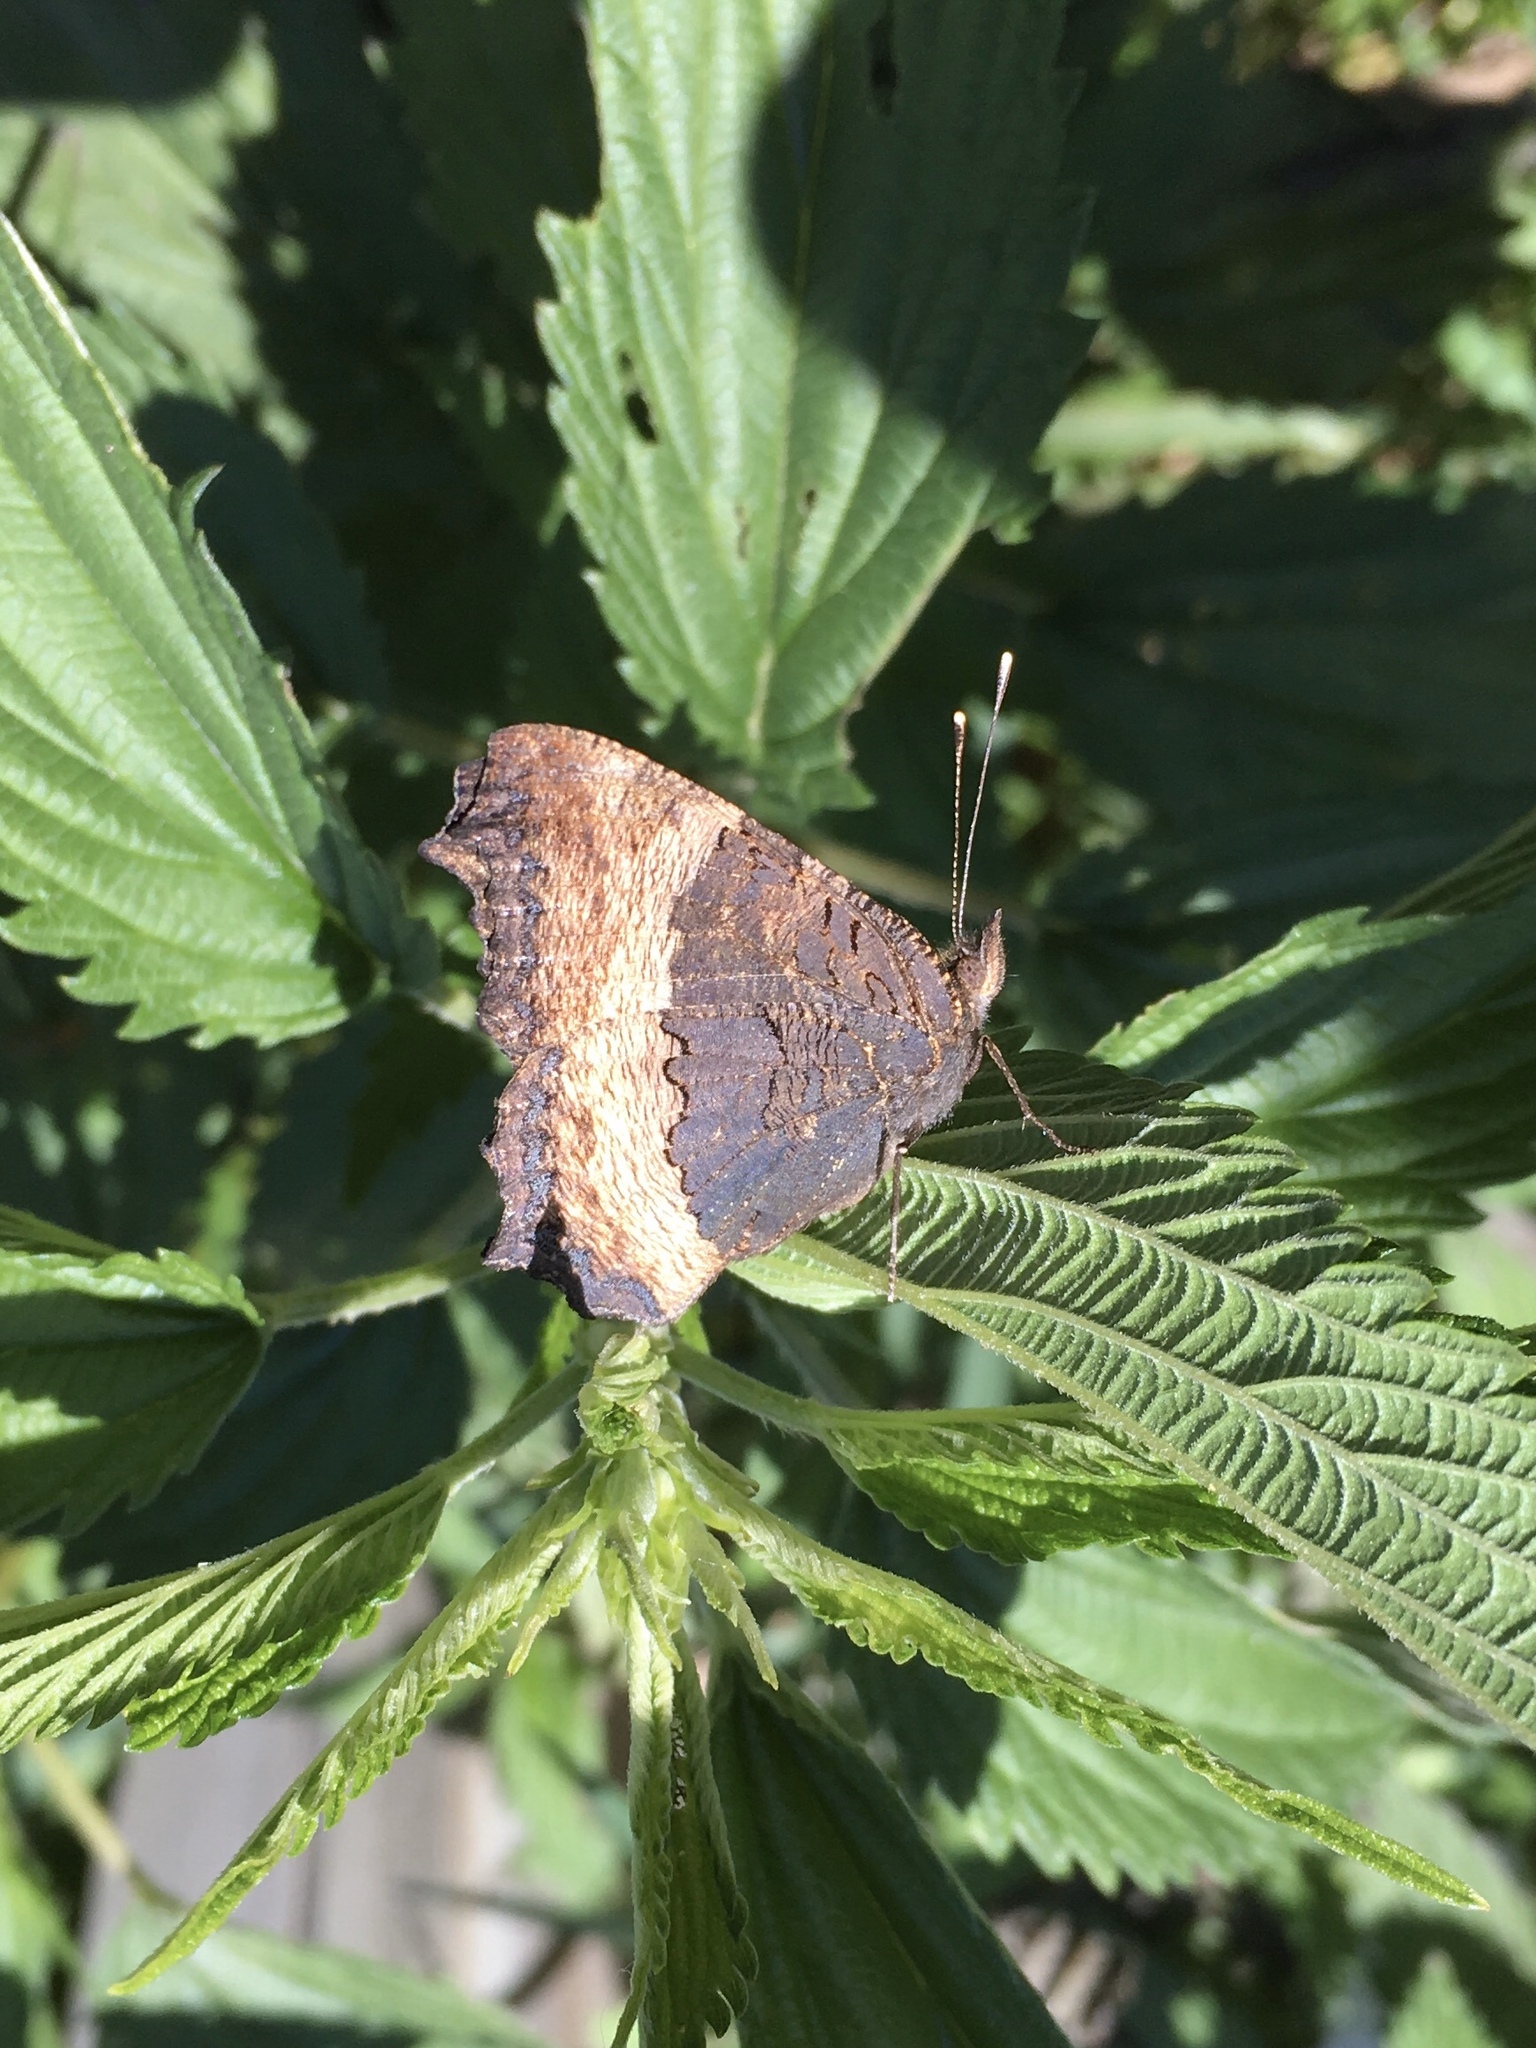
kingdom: Animalia
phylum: Arthropoda
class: Insecta
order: Lepidoptera
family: Nymphalidae
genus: Aglais
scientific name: Aglais milberti
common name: Milbert's tortoiseshell
